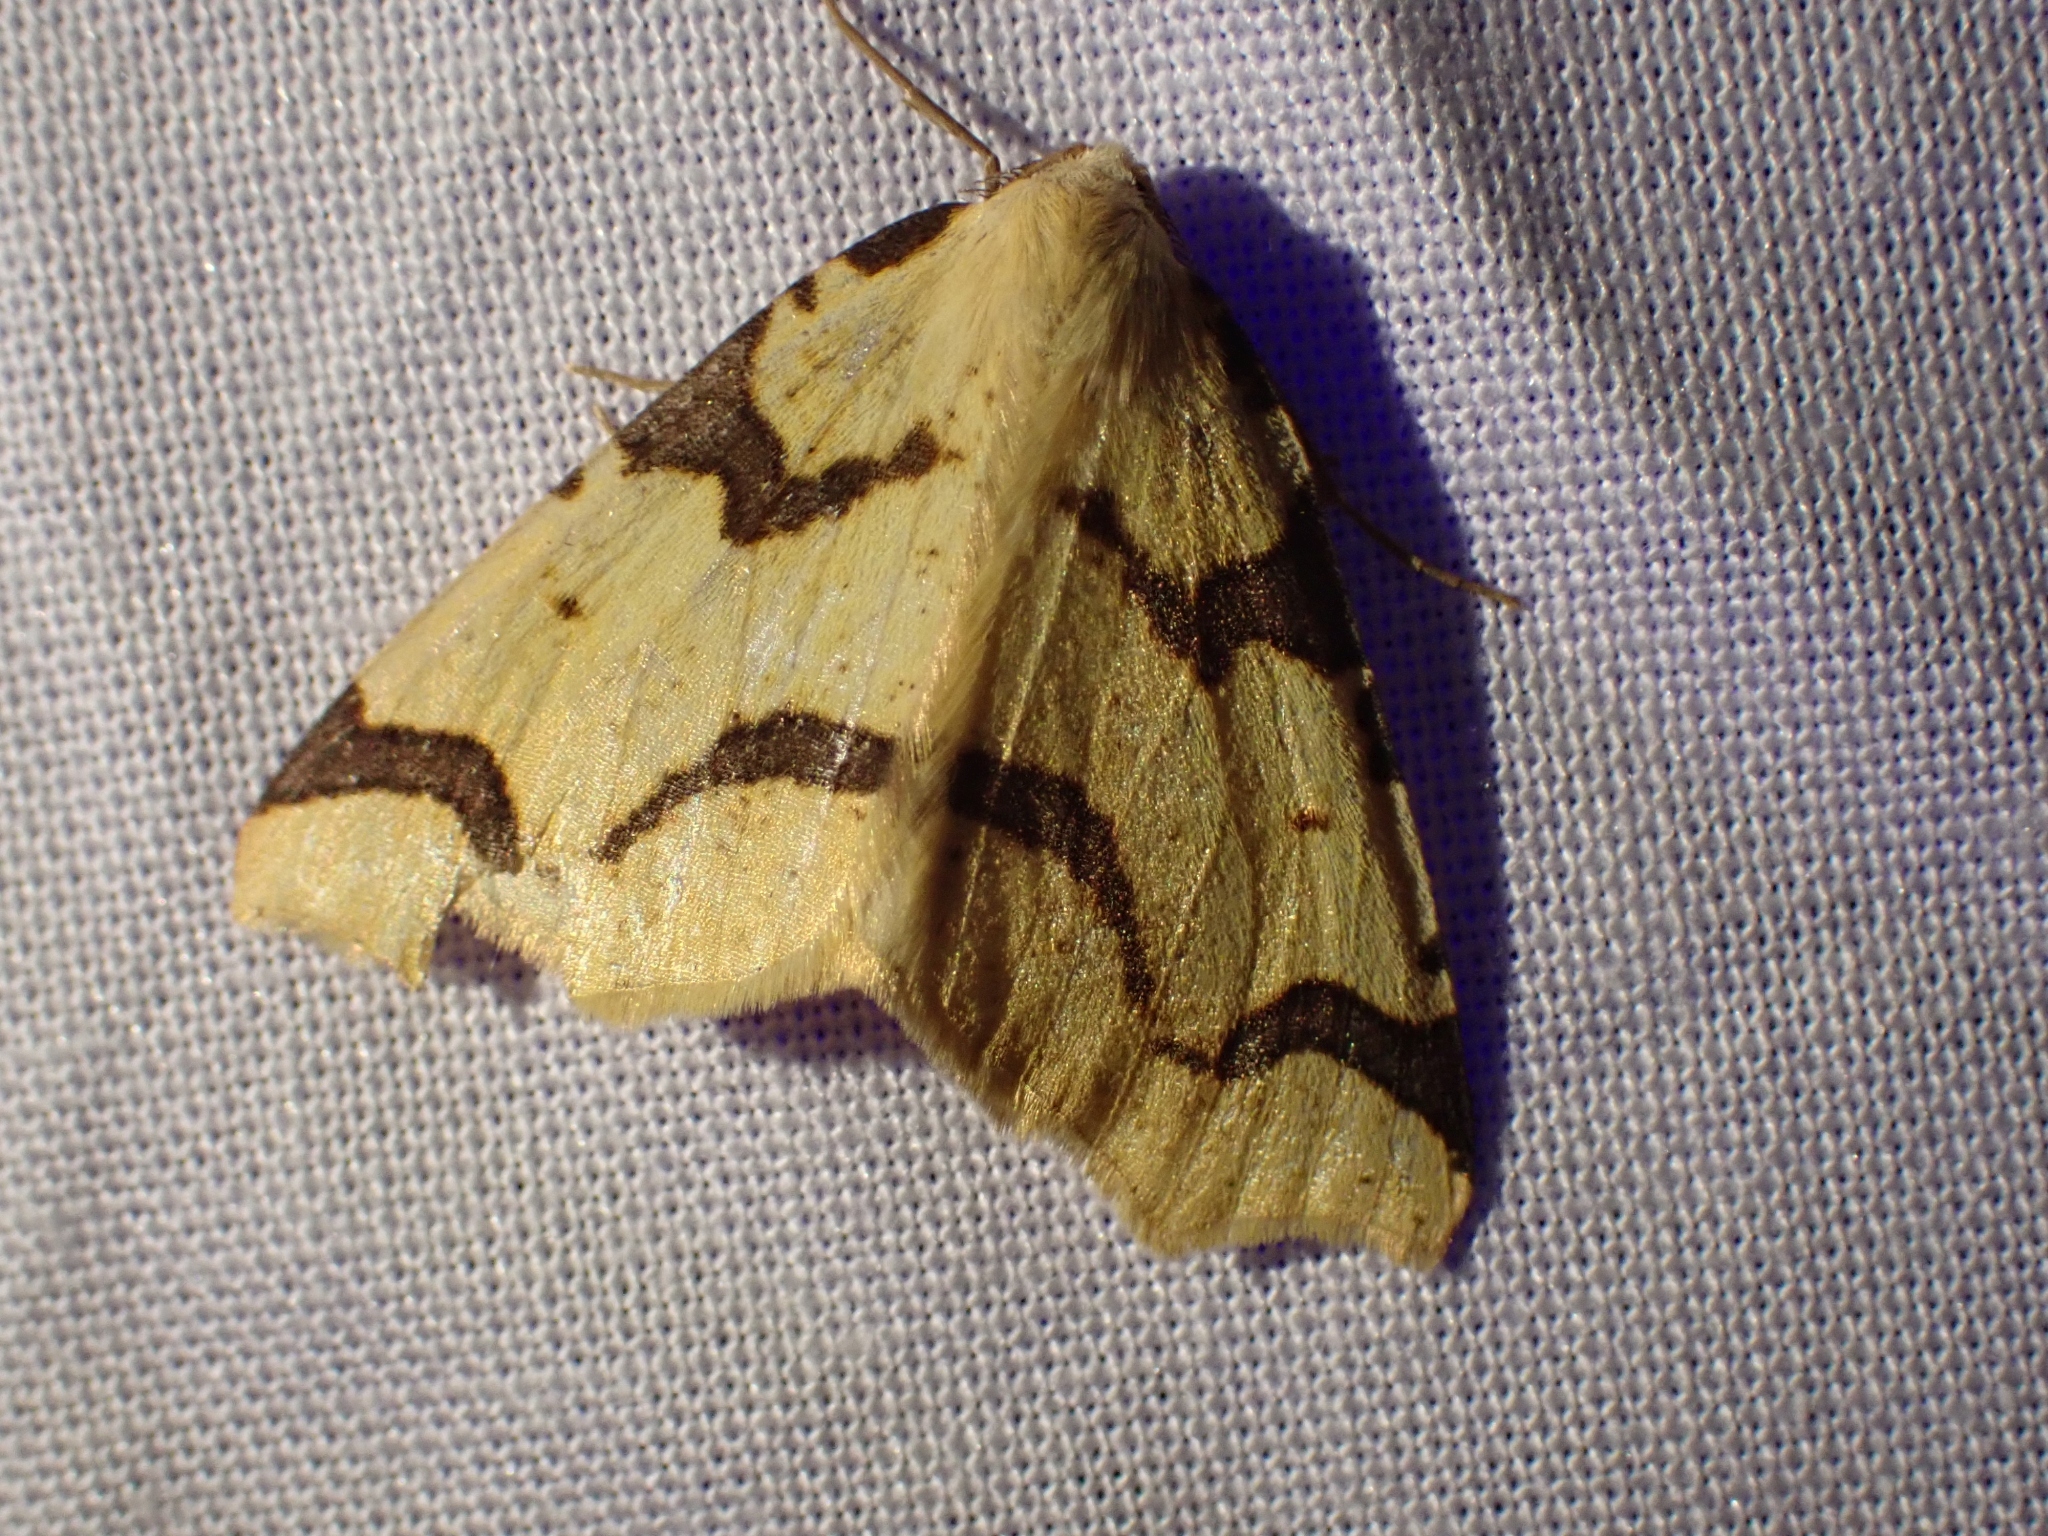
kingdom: Animalia
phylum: Arthropoda
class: Insecta
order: Lepidoptera
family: Geometridae
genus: Neoterpes
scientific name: Neoterpes trianguliferata
